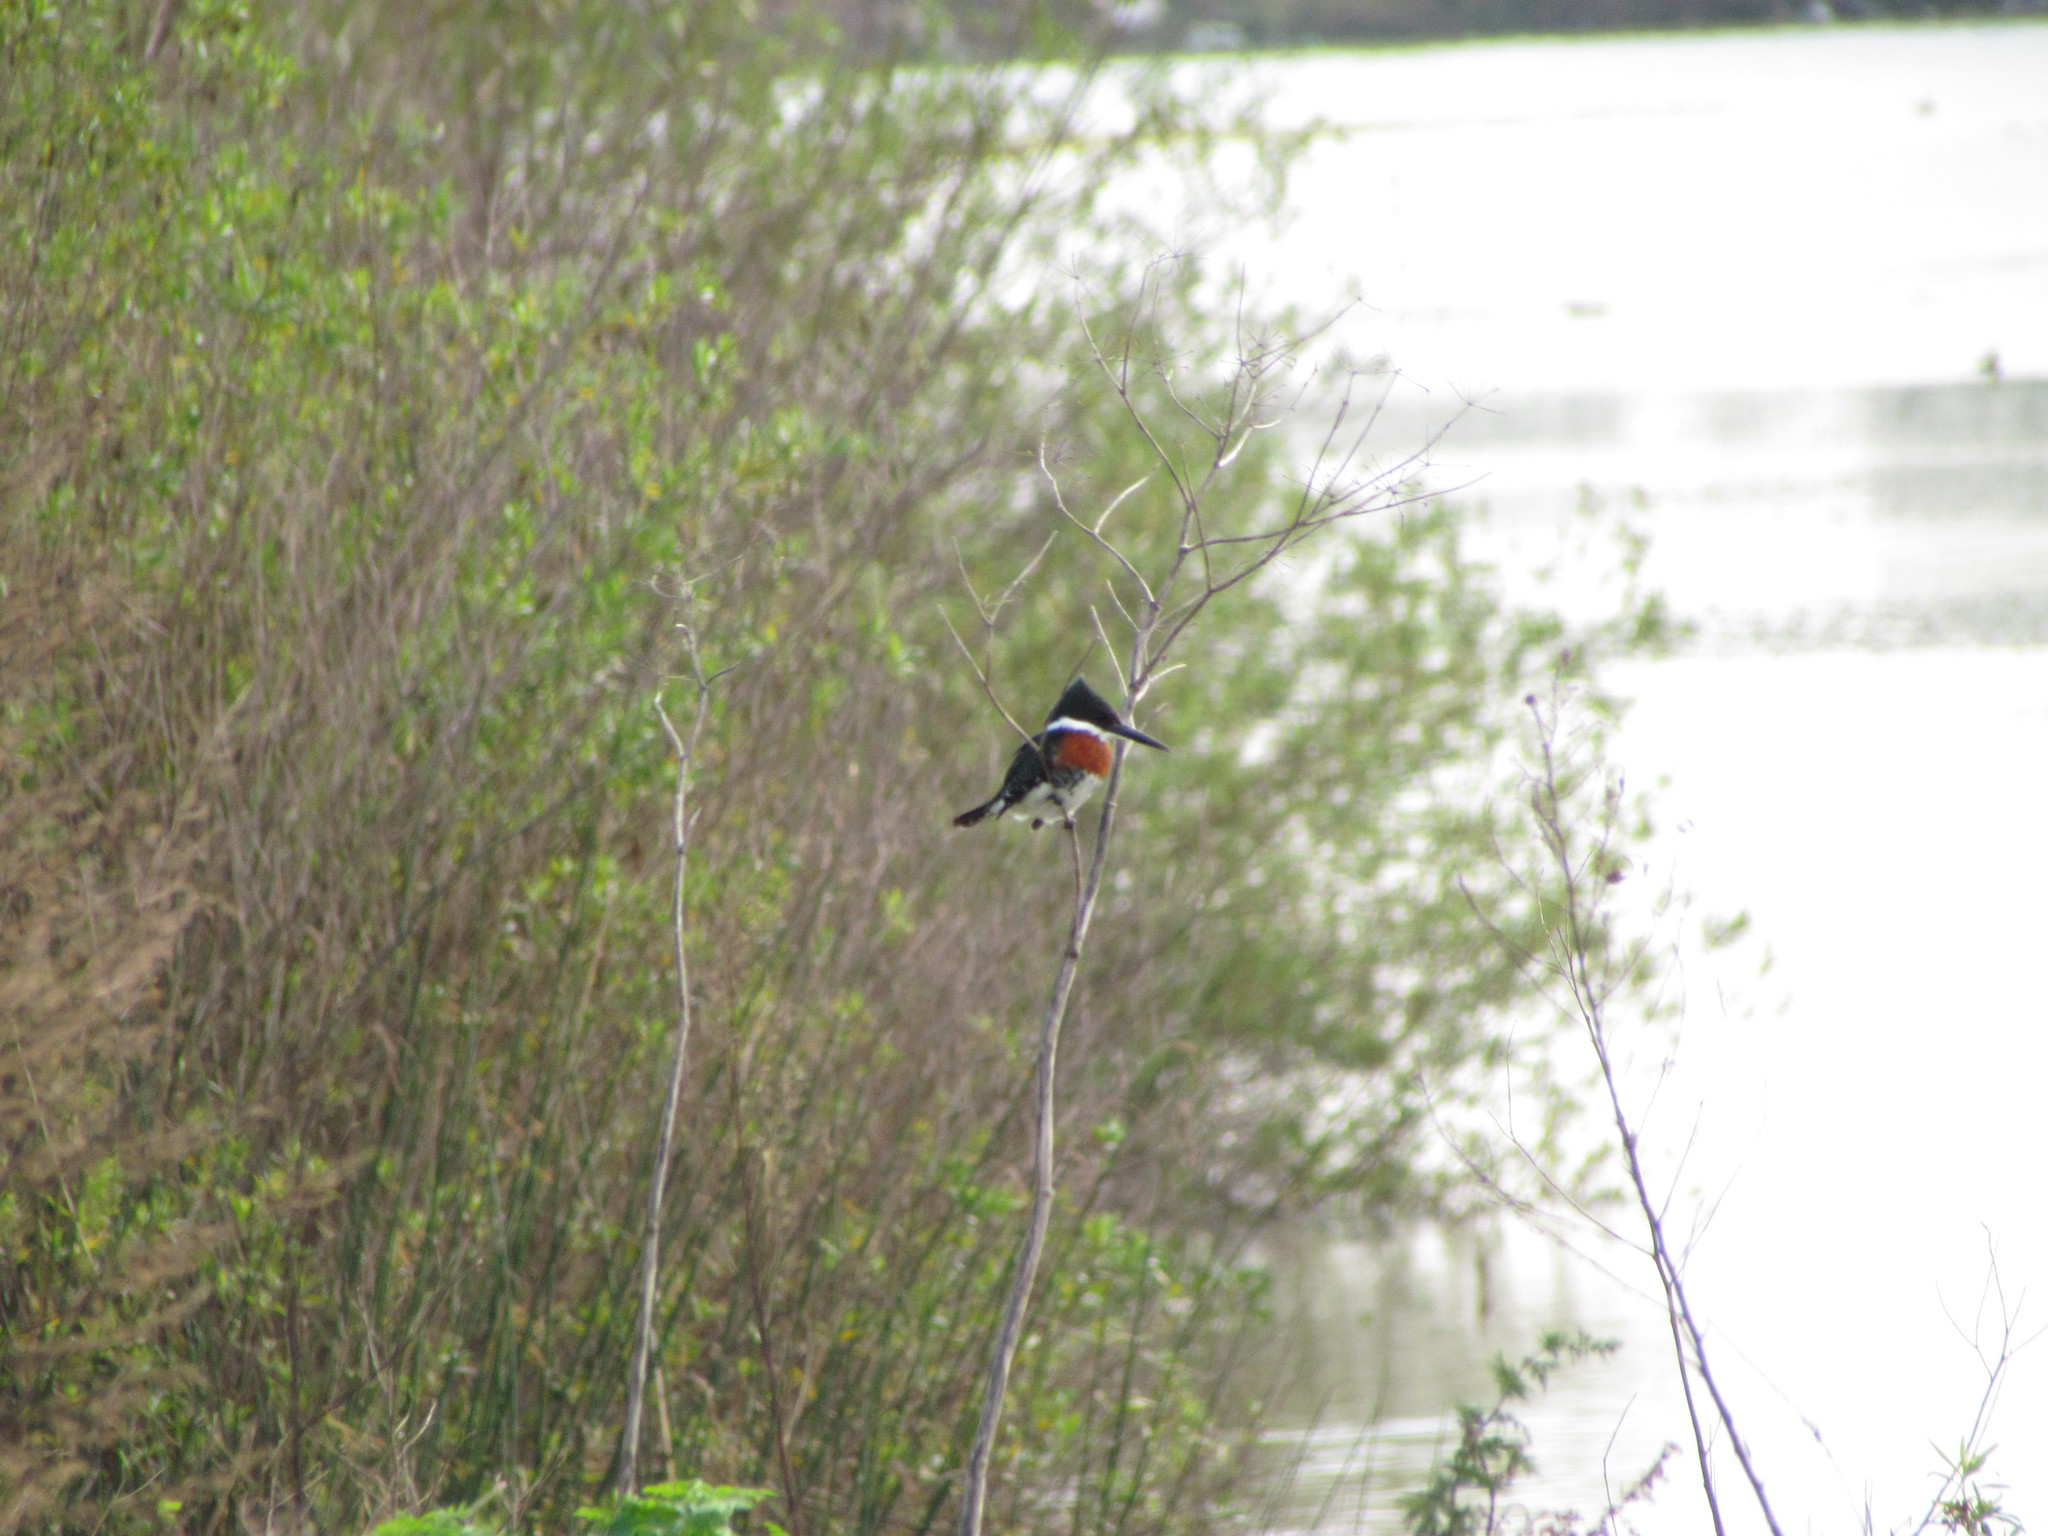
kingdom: Animalia
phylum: Chordata
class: Aves
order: Coraciiformes
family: Alcedinidae
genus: Chloroceryle
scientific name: Chloroceryle americana
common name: Green kingfisher
